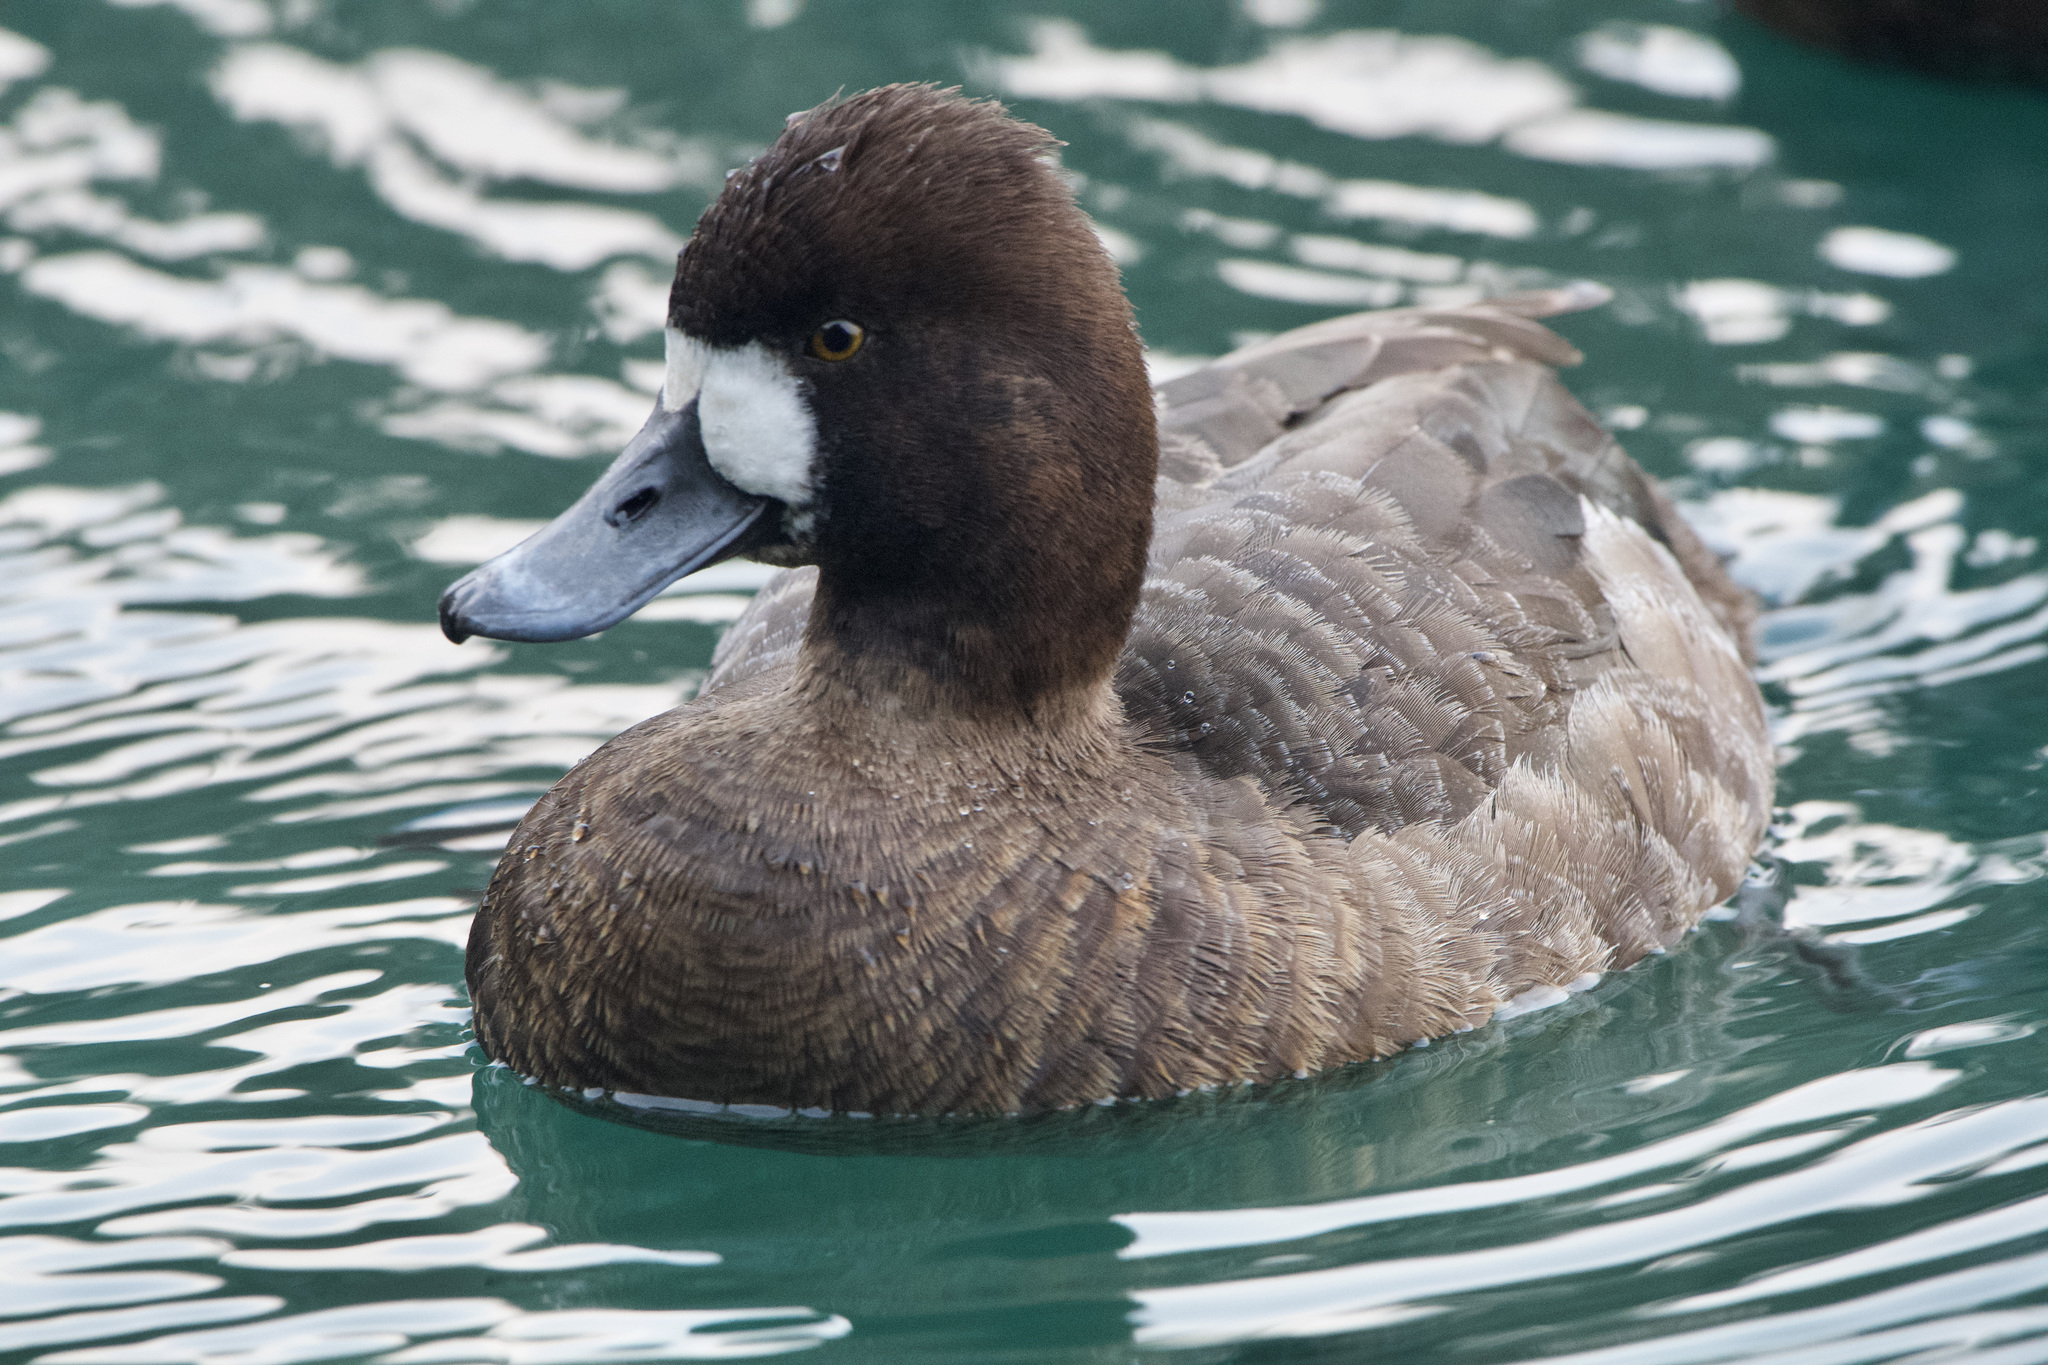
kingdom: Animalia
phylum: Chordata
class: Aves
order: Anseriformes
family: Anatidae
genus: Aythya
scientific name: Aythya affinis
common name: Lesser scaup
